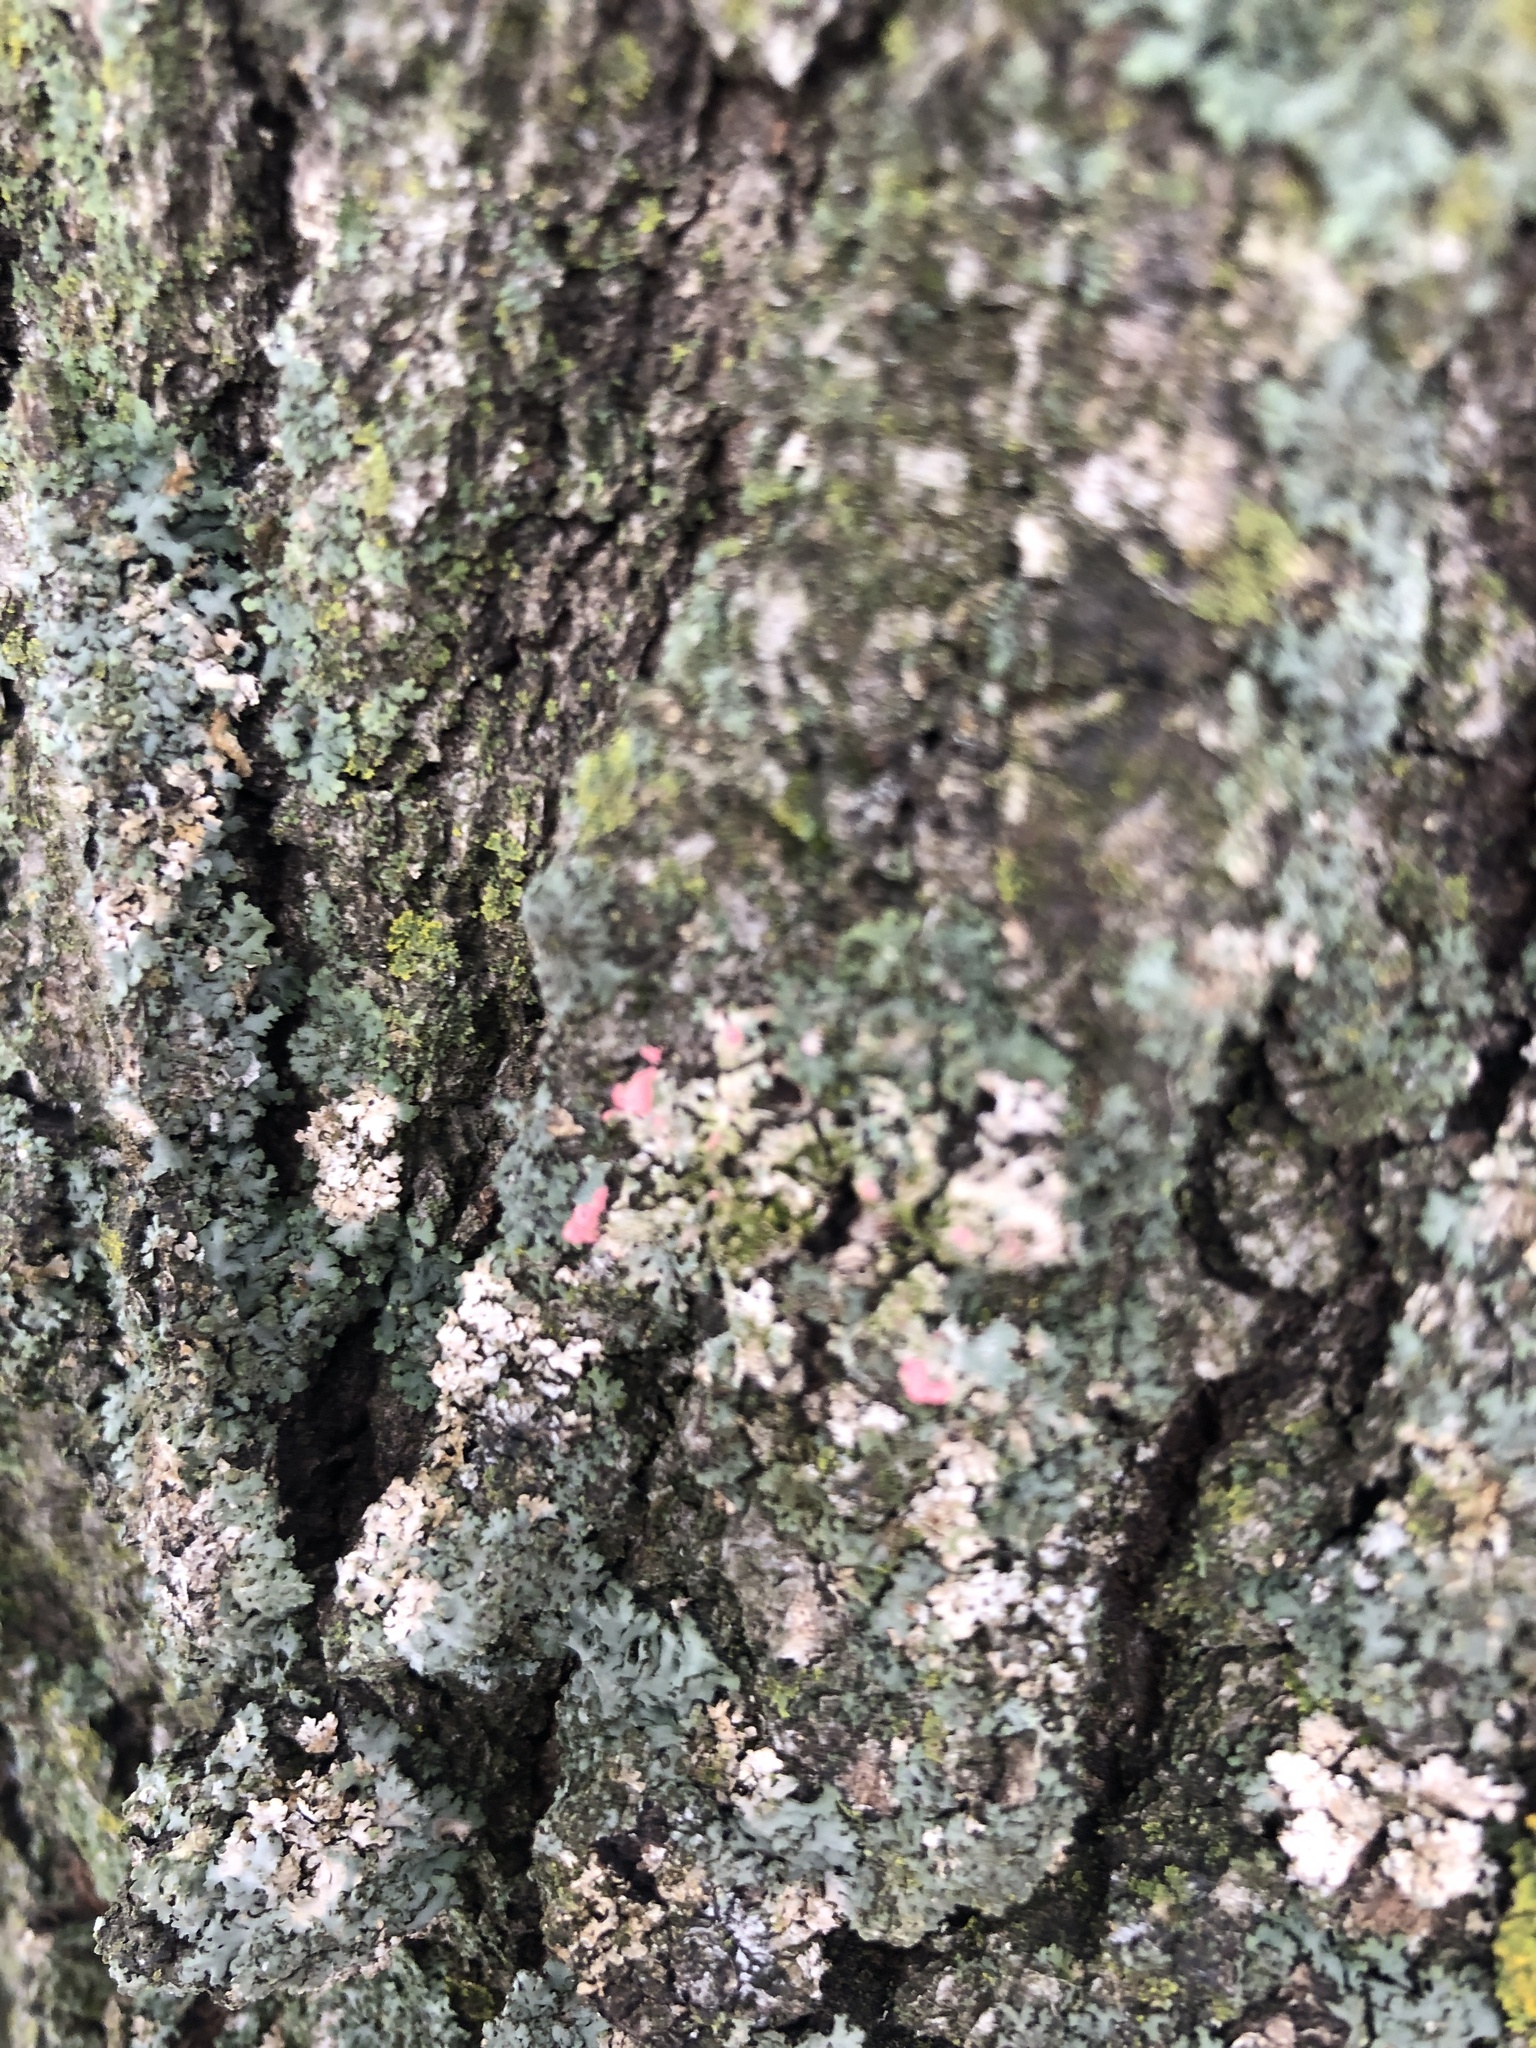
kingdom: Fungi
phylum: Ascomycota
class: Sordariomycetes
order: Hypocreales
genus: Illosporiopsis
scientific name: Illosporiopsis christiansenii
